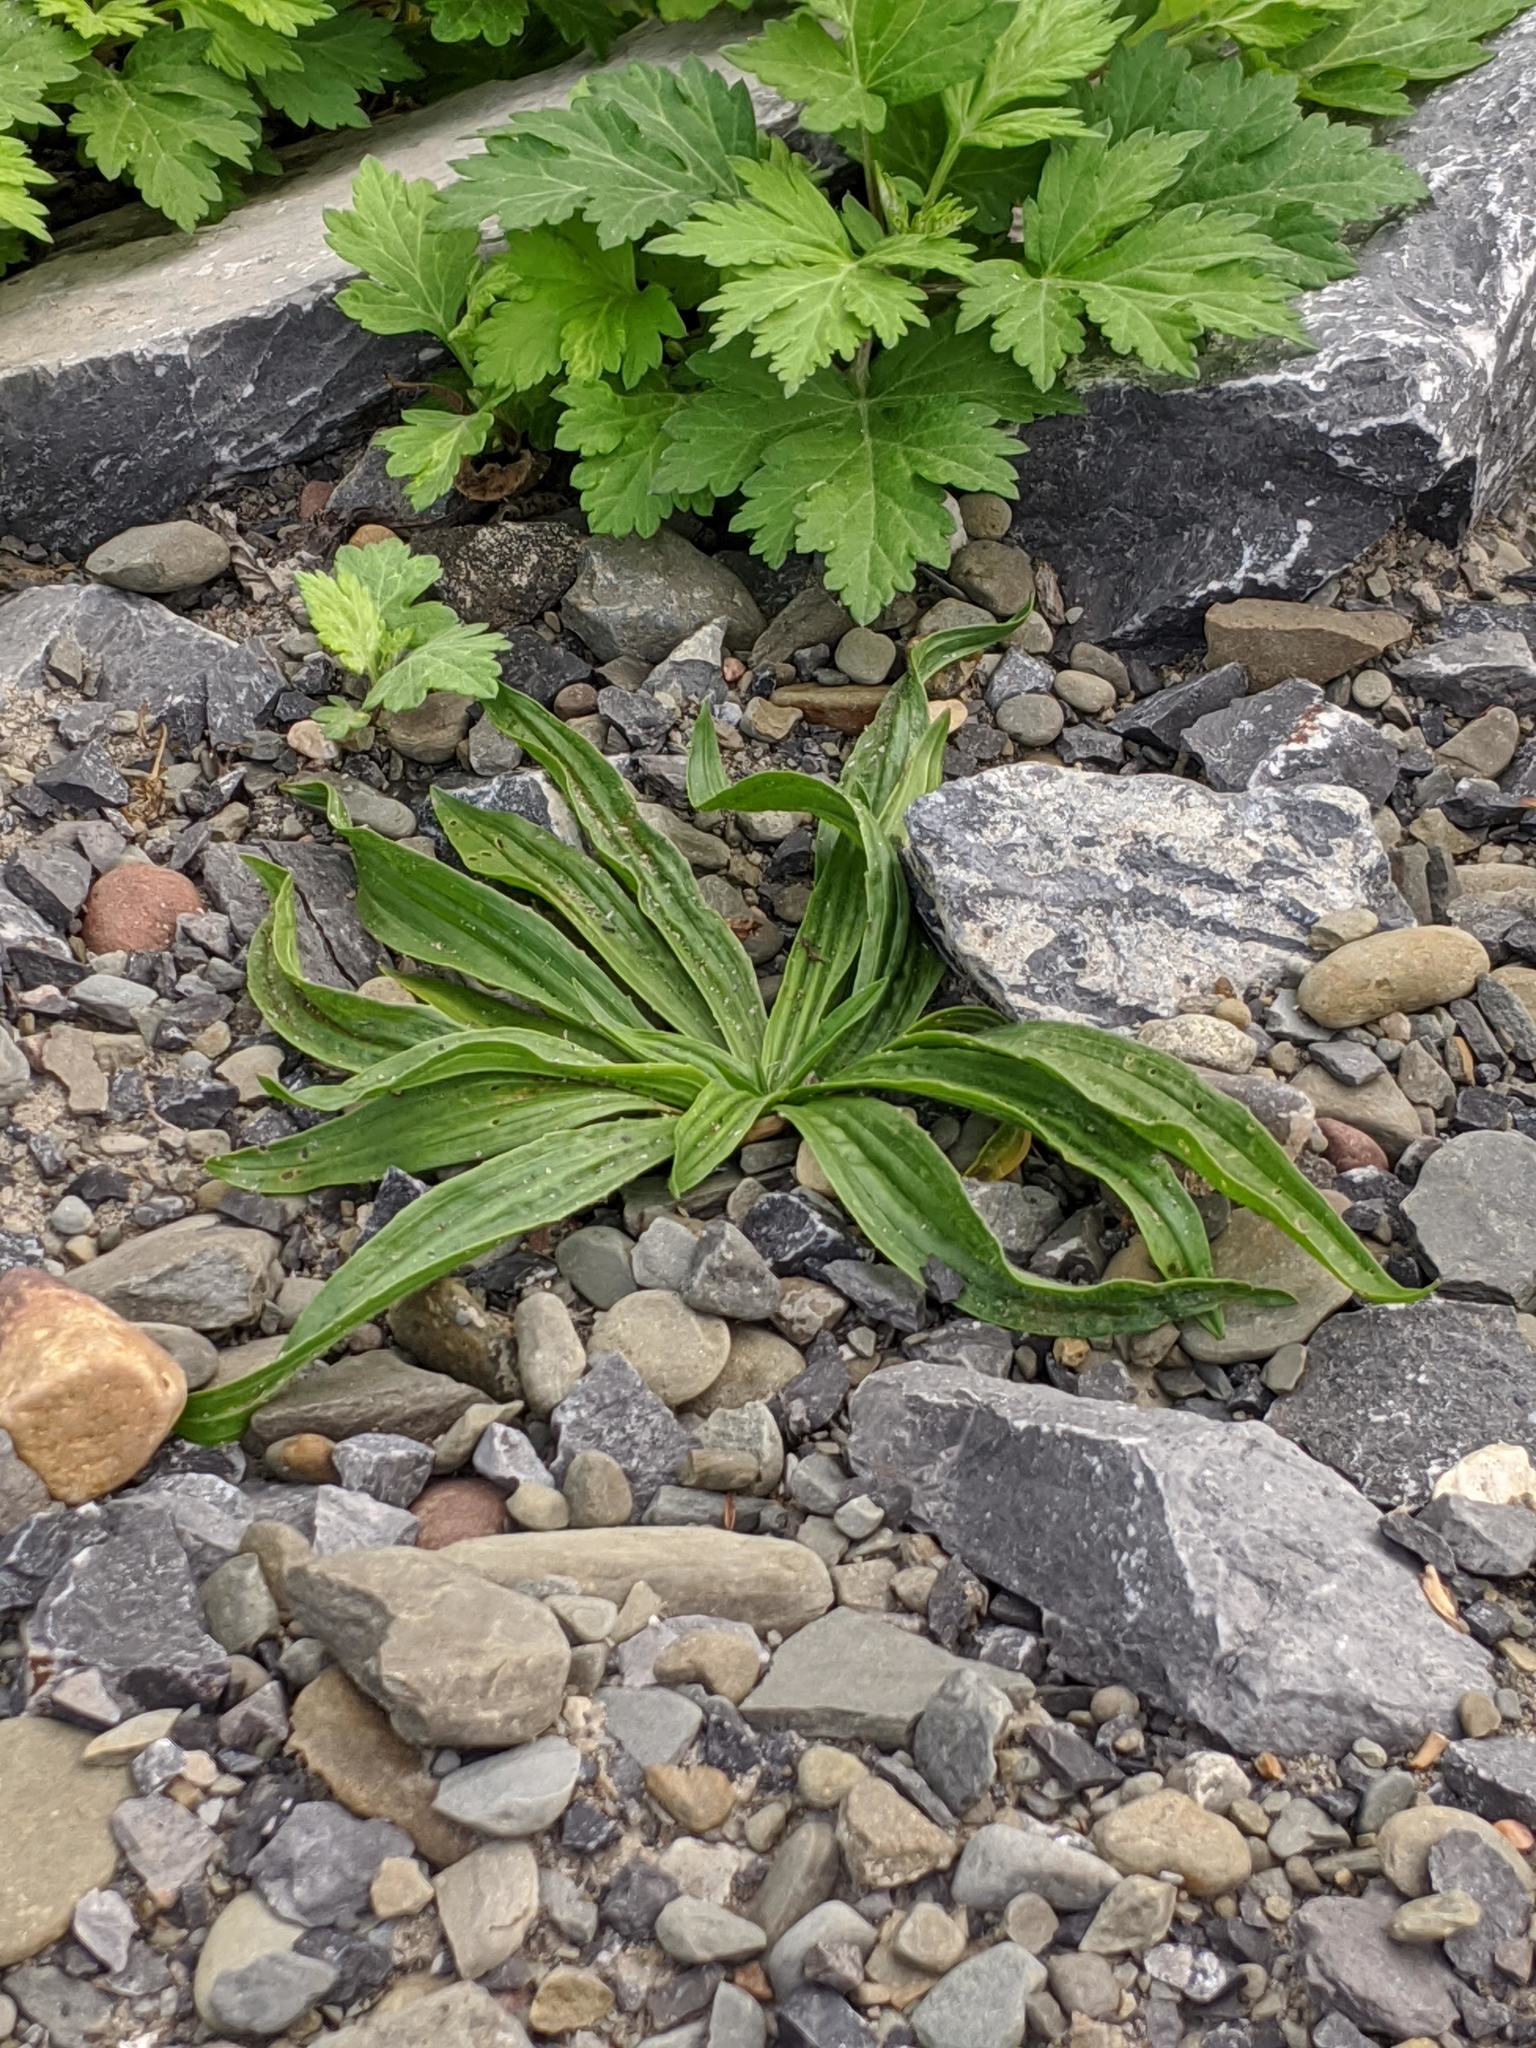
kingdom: Plantae
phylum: Tracheophyta
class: Magnoliopsida
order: Lamiales
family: Plantaginaceae
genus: Plantago
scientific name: Plantago lanceolata
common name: Ribwort plantain
